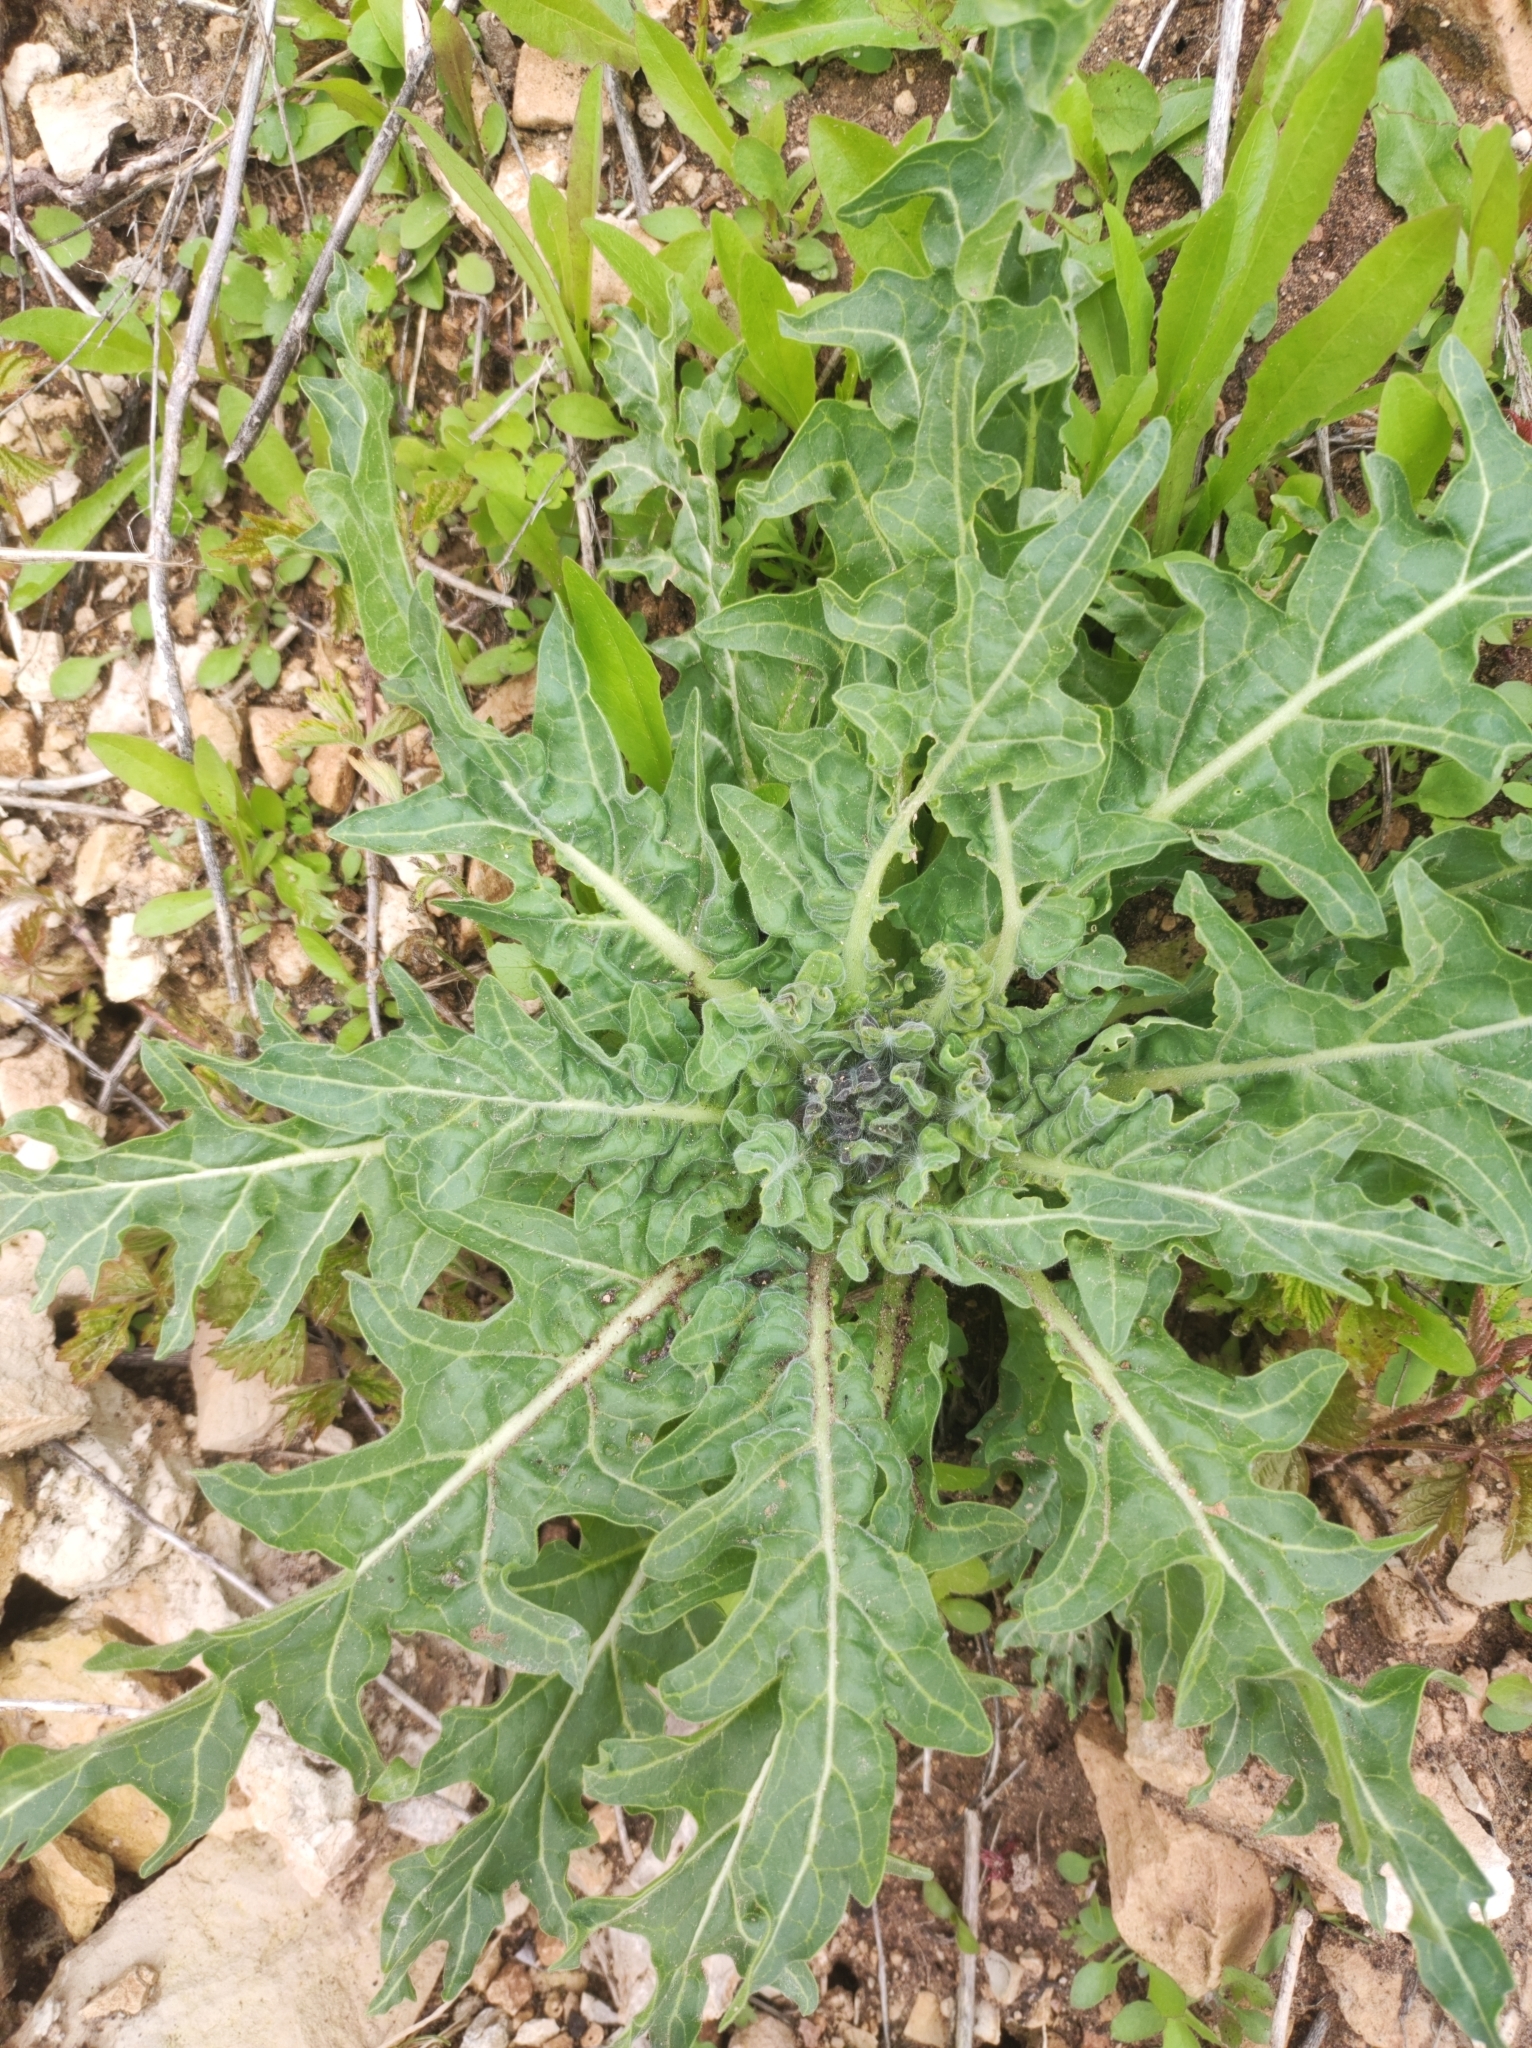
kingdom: Plantae
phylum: Tracheophyta
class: Magnoliopsida
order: Solanales
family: Solanaceae
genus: Hyoscyamus
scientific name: Hyoscyamus niger
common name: Henbane
